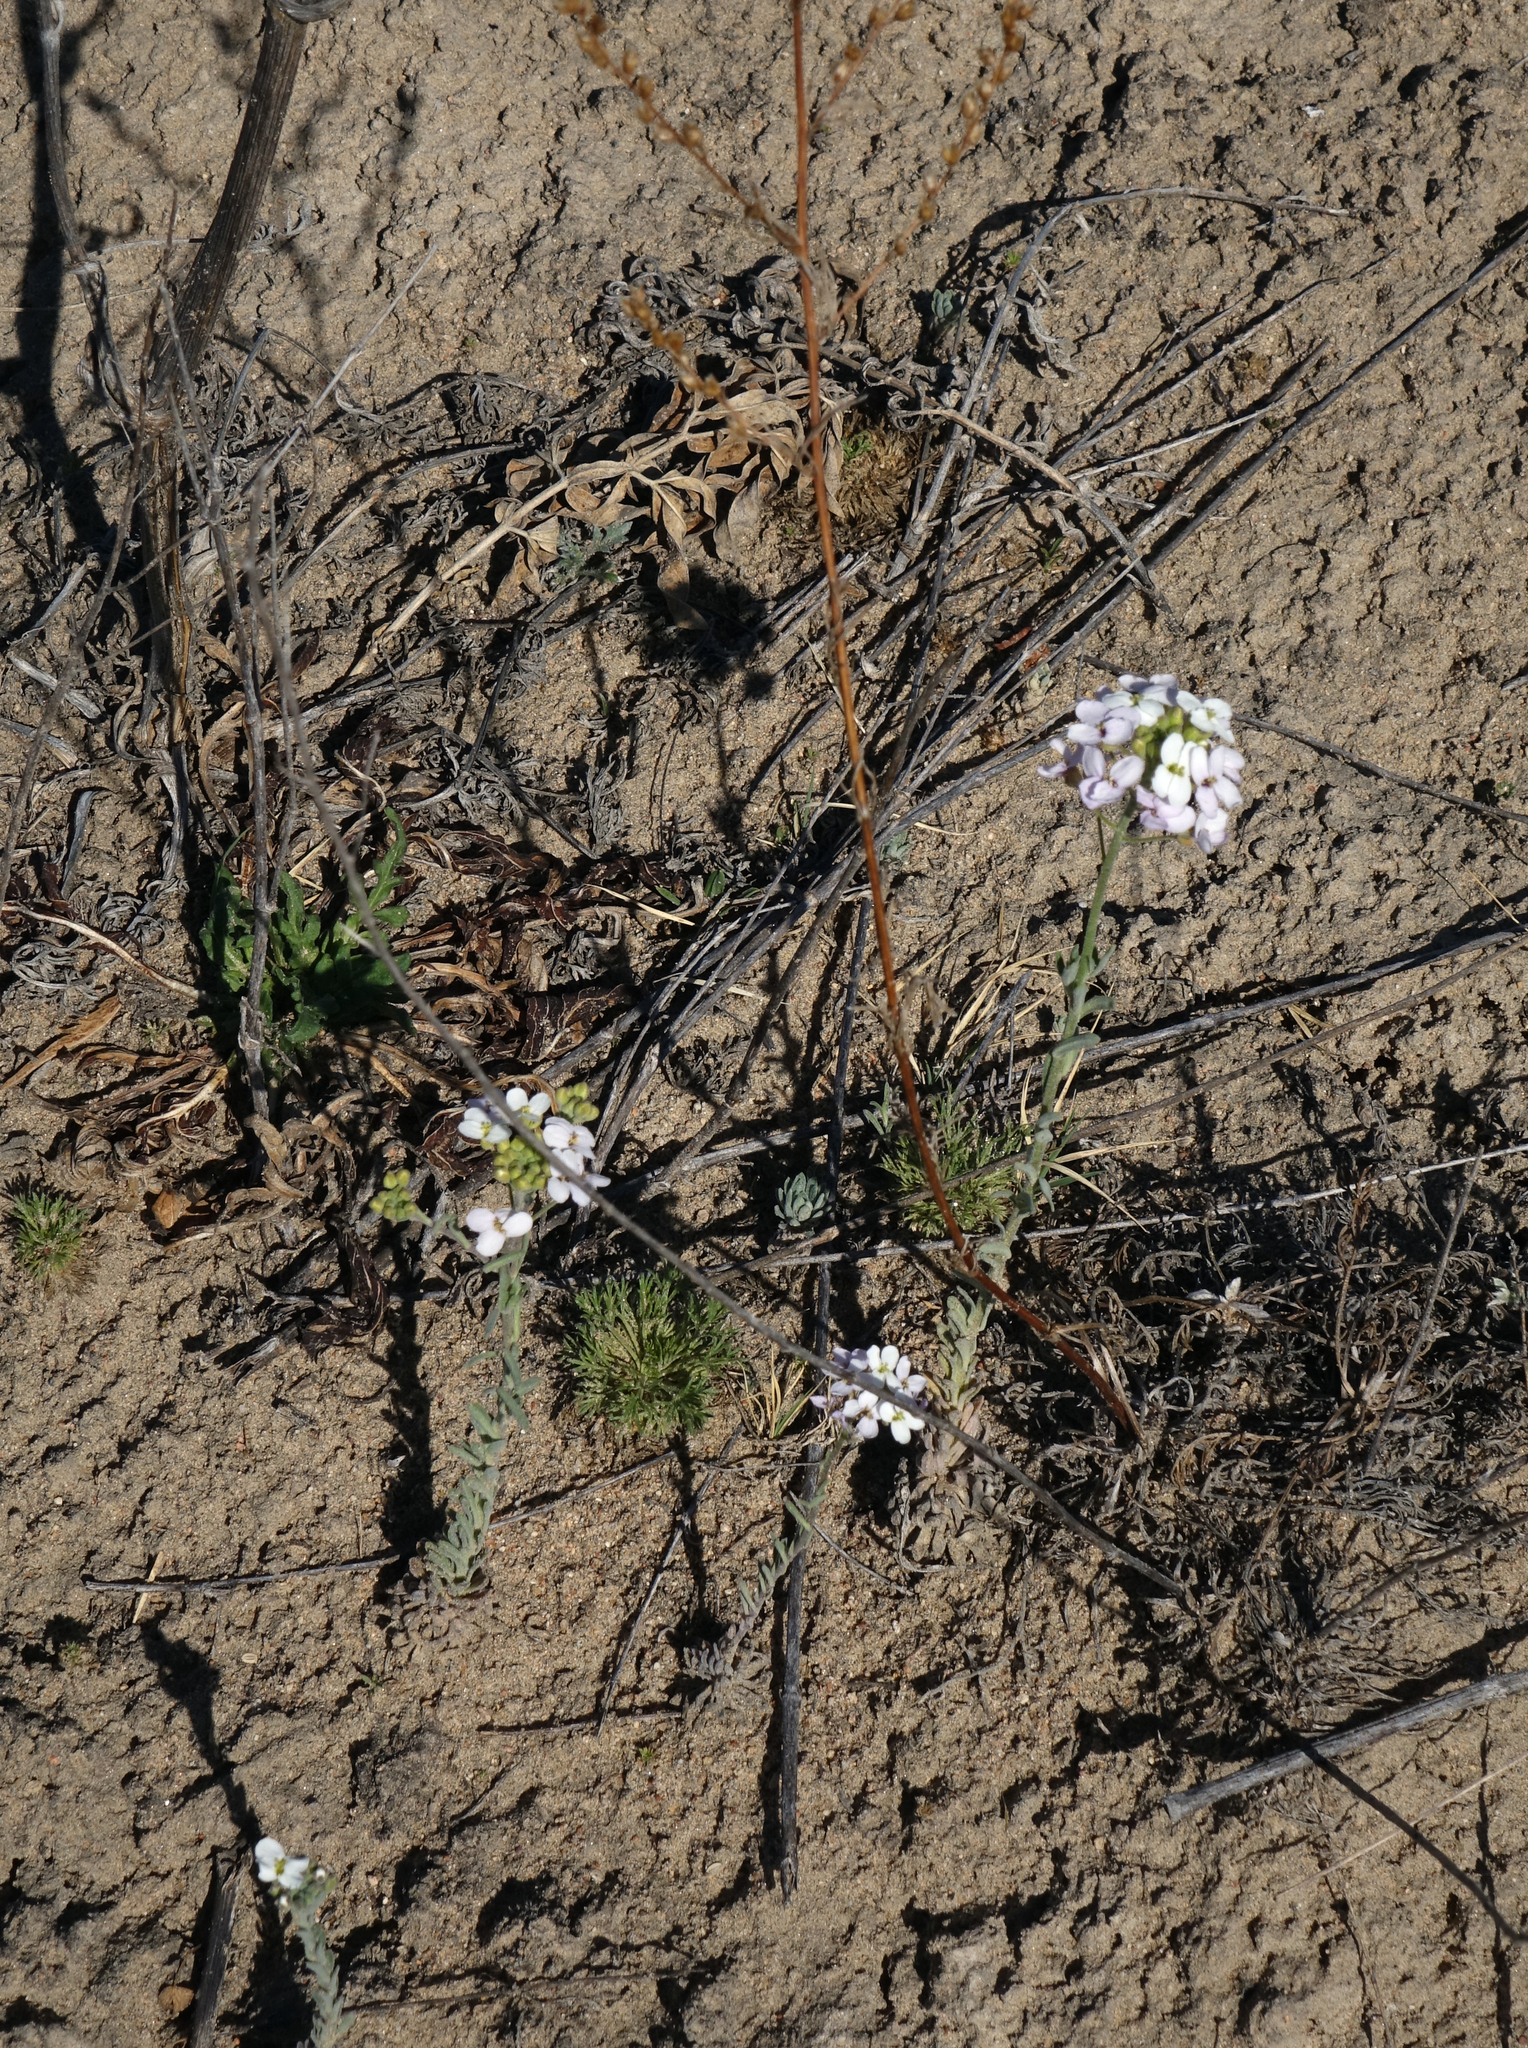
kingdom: Plantae
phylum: Tracheophyta
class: Magnoliopsida
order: Brassicales
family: Brassicaceae
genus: Stevenia
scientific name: Stevenia incarnata
